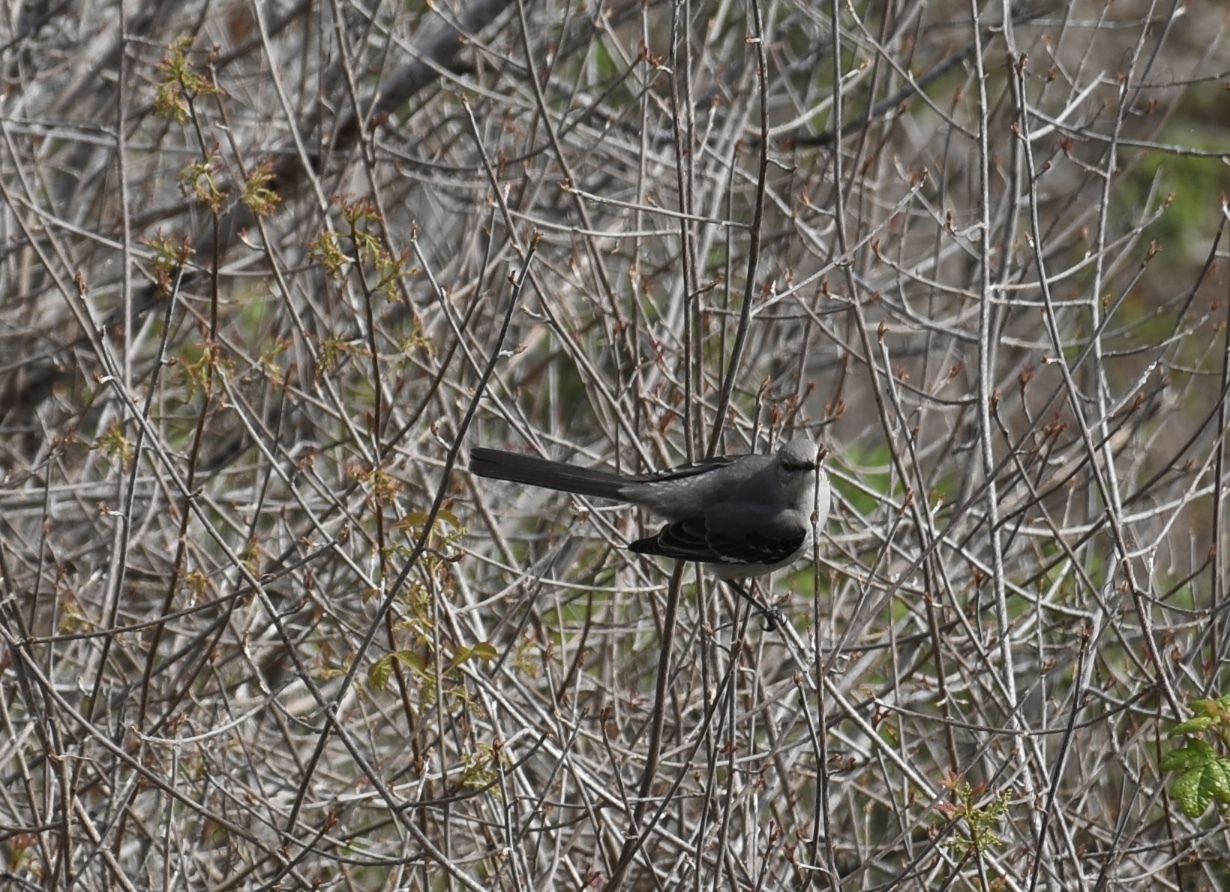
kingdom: Animalia
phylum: Chordata
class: Aves
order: Passeriformes
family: Mimidae
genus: Mimus
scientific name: Mimus polyglottos
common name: Northern mockingbird
